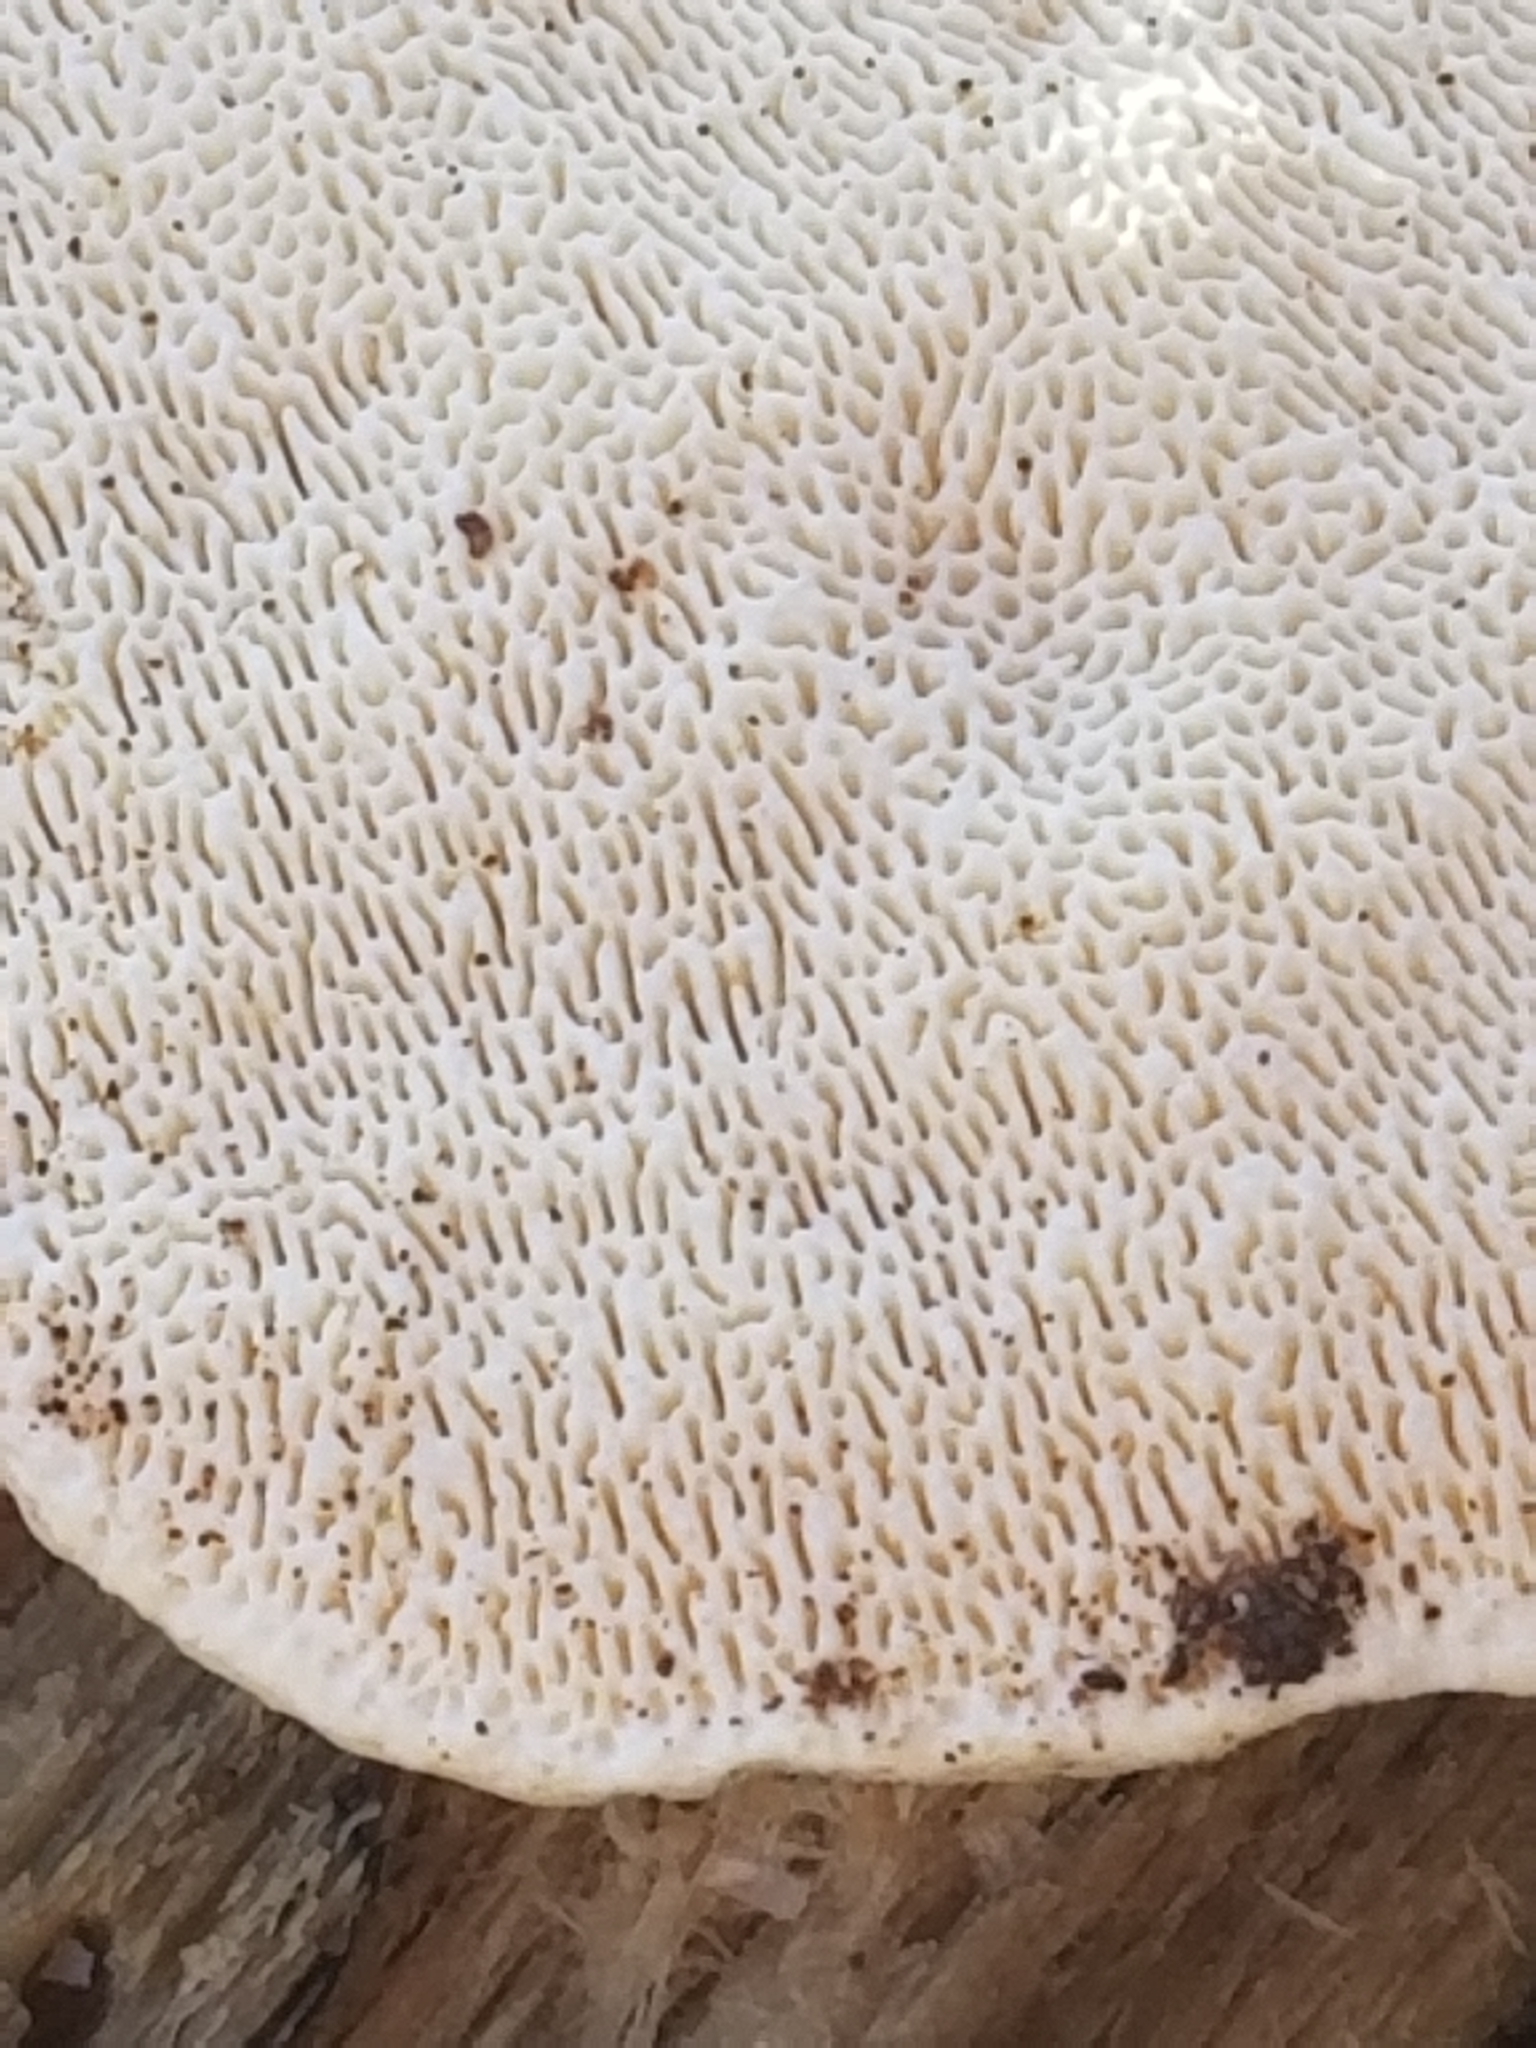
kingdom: Fungi
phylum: Basidiomycota
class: Agaricomycetes
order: Polyporales
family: Polyporaceae
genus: Trametes
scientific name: Trametes gibbosa
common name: Lumpy bracket
